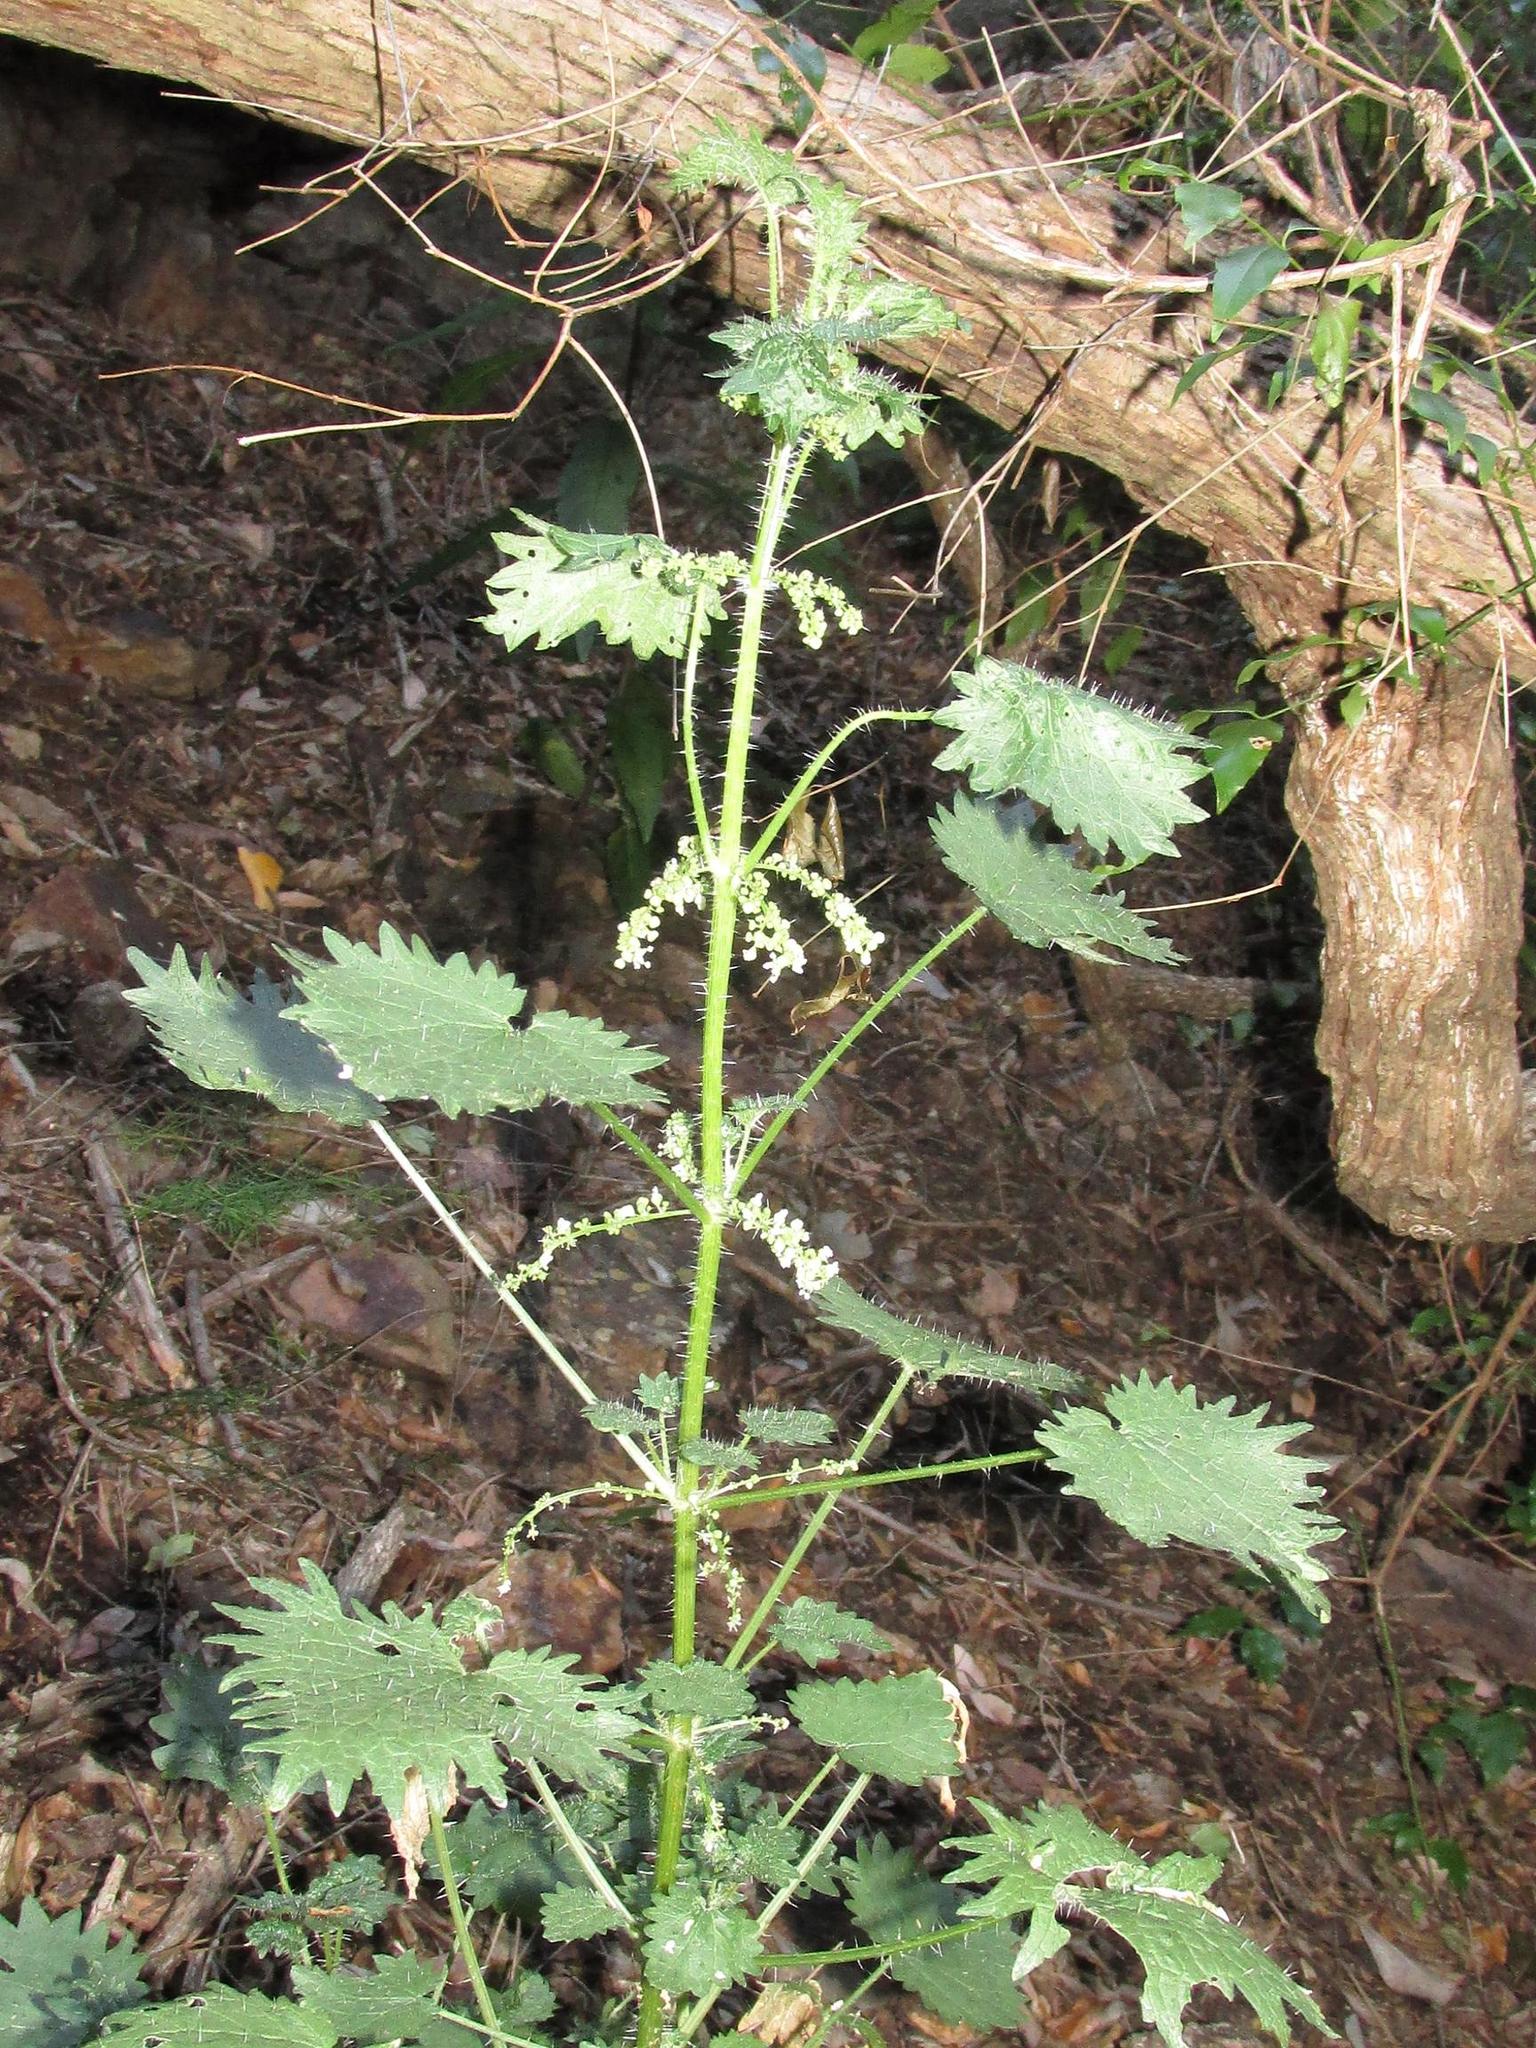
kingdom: Plantae
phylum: Tracheophyta
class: Magnoliopsida
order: Rosales
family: Urticaceae
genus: Urtica
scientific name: Urtica lobulata
